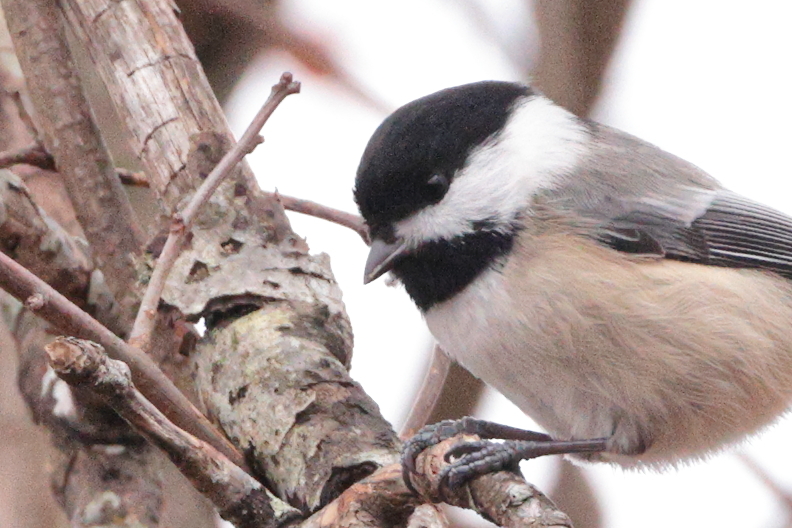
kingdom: Animalia
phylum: Chordata
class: Aves
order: Passeriformes
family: Paridae
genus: Poecile
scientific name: Poecile atricapillus
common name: Black-capped chickadee
